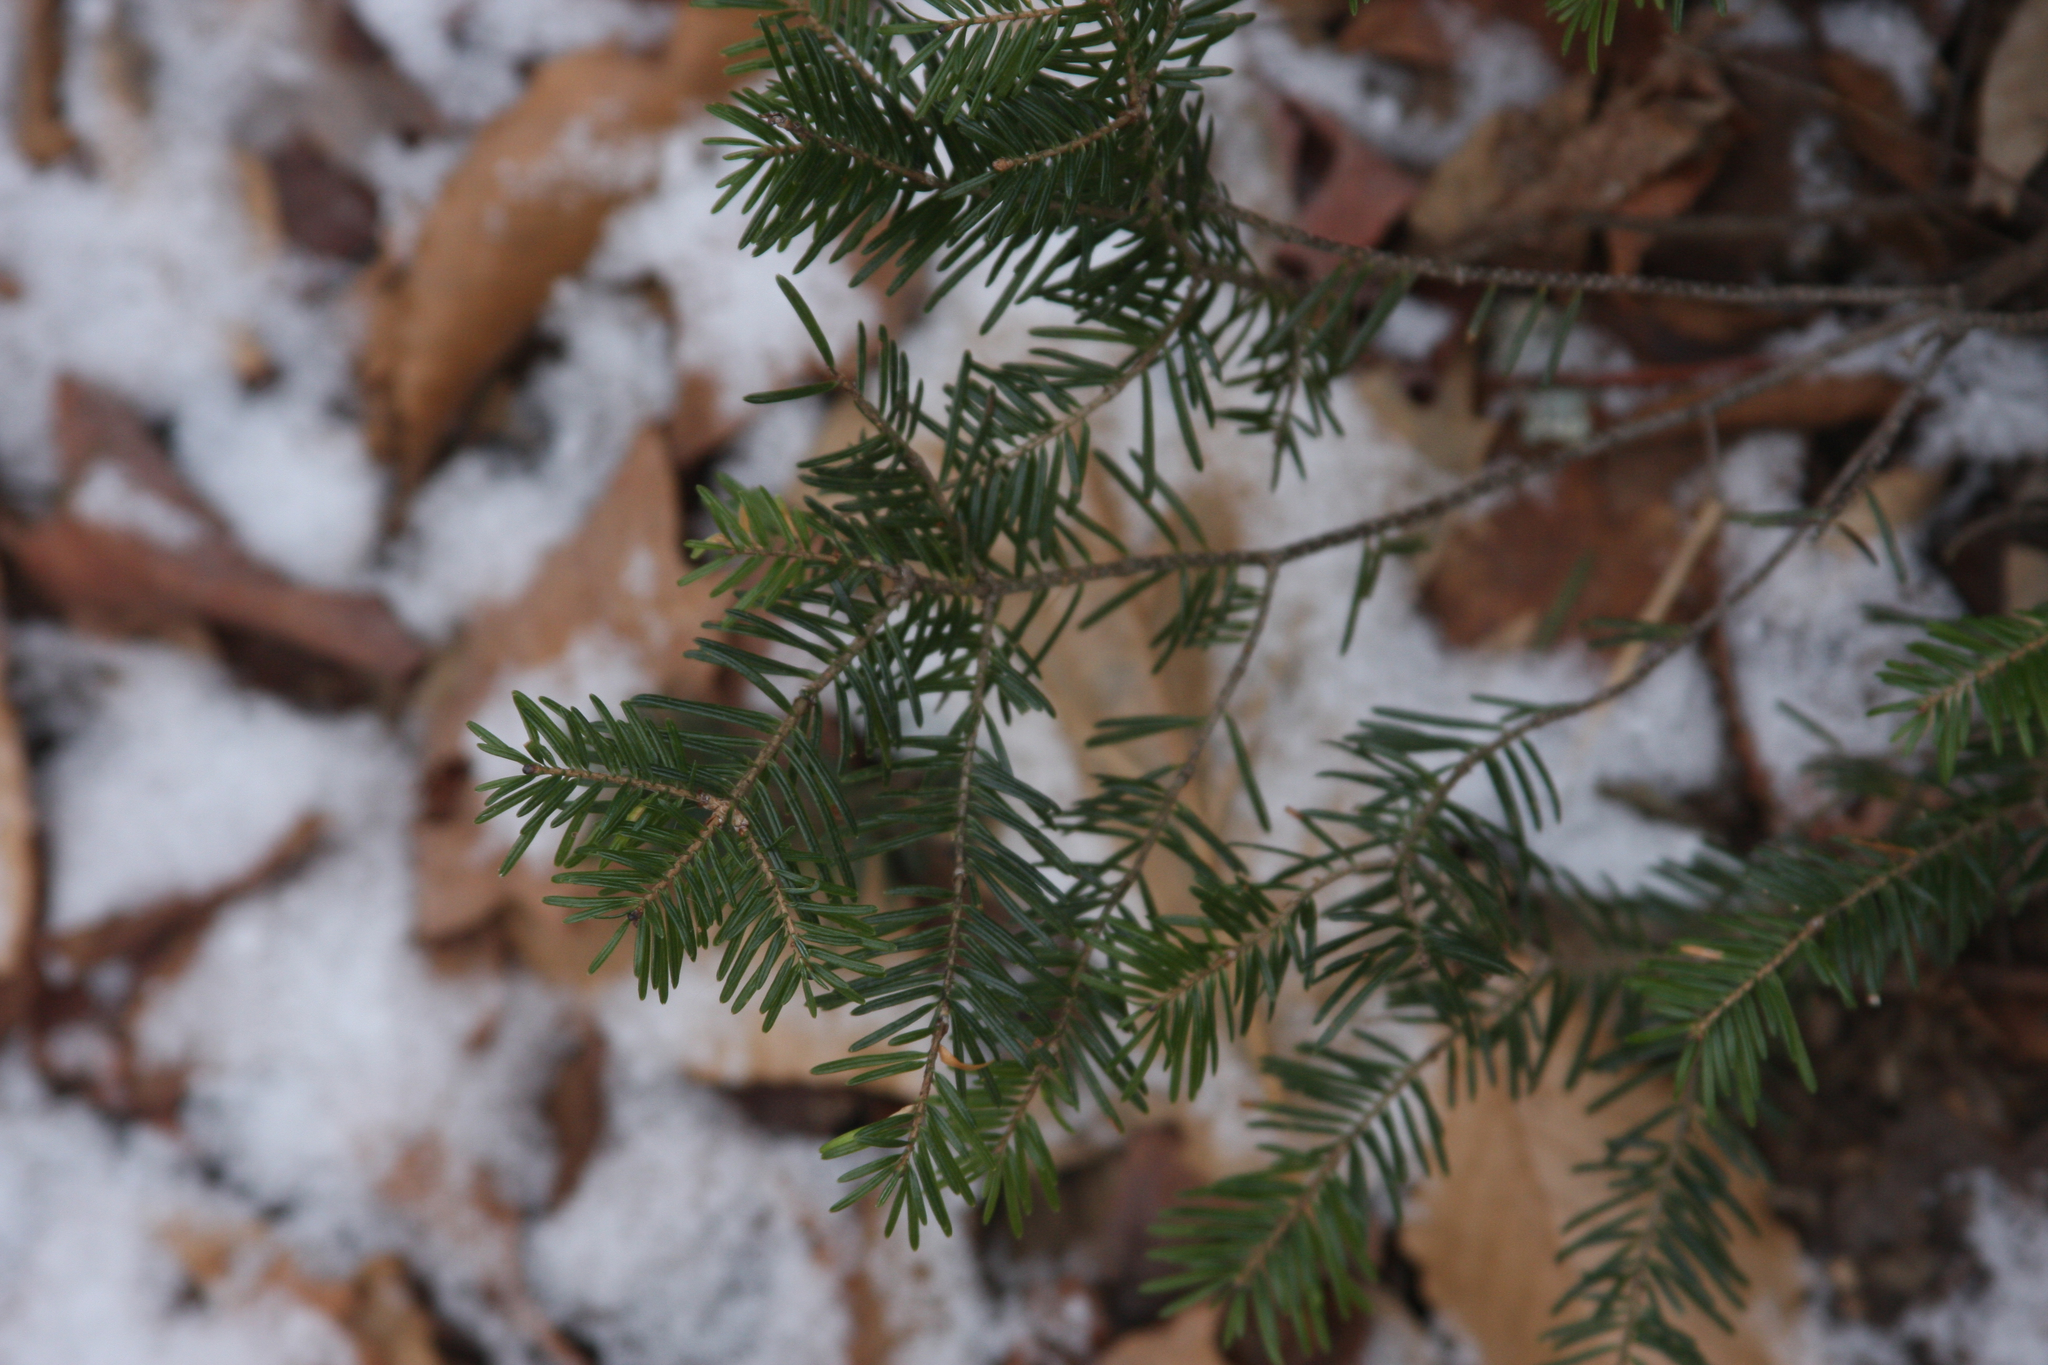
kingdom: Plantae
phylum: Tracheophyta
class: Pinopsida
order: Pinales
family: Pinaceae
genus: Abies
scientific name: Abies balsamea
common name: Balsam fir
